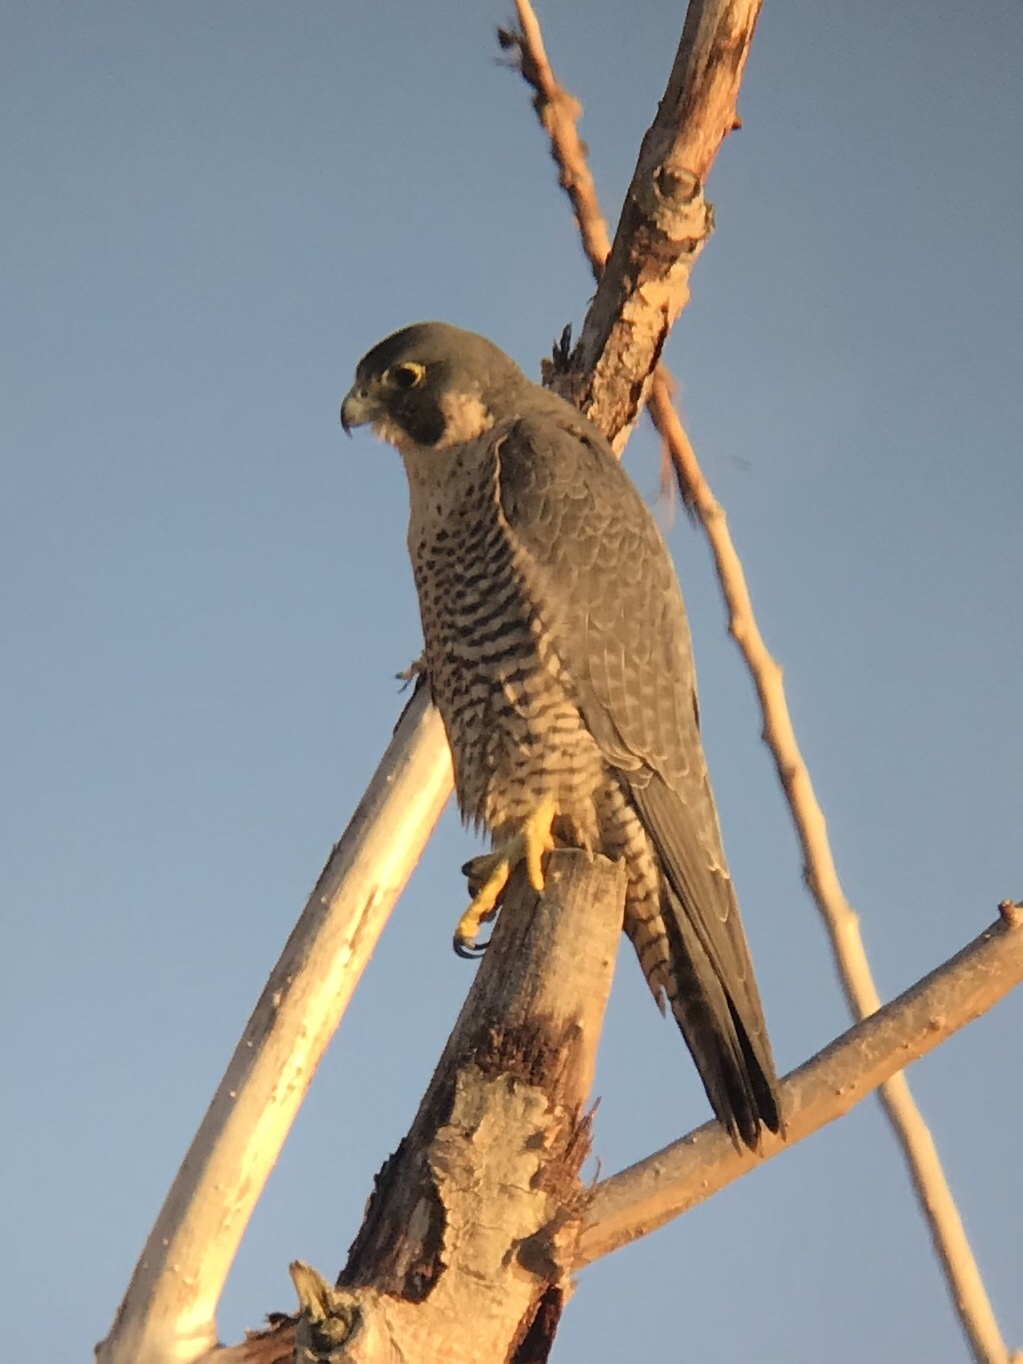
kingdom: Animalia
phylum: Chordata
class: Aves
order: Falconiformes
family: Falconidae
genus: Falco
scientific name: Falco peregrinus
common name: Peregrine falcon
